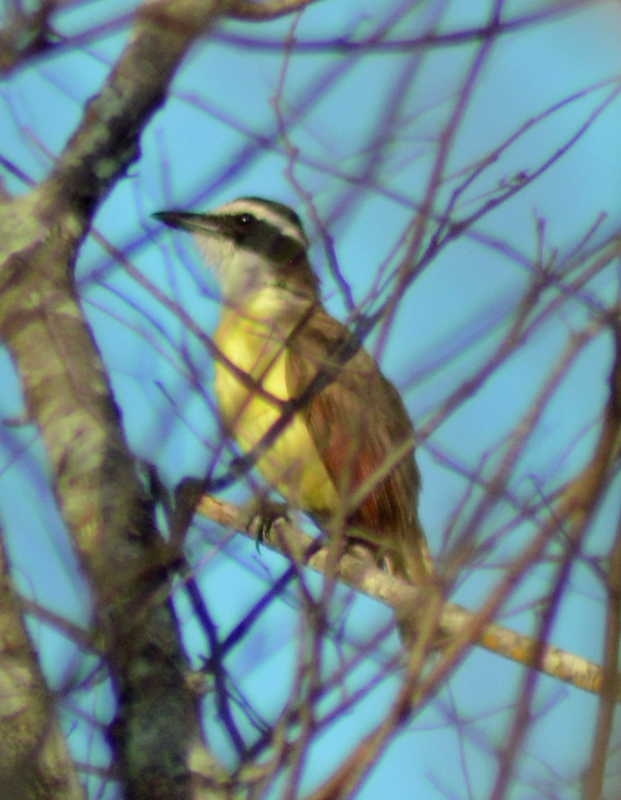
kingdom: Animalia
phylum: Chordata
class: Aves
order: Passeriformes
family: Tyrannidae
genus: Pitangus
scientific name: Pitangus sulphuratus
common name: Great kiskadee
